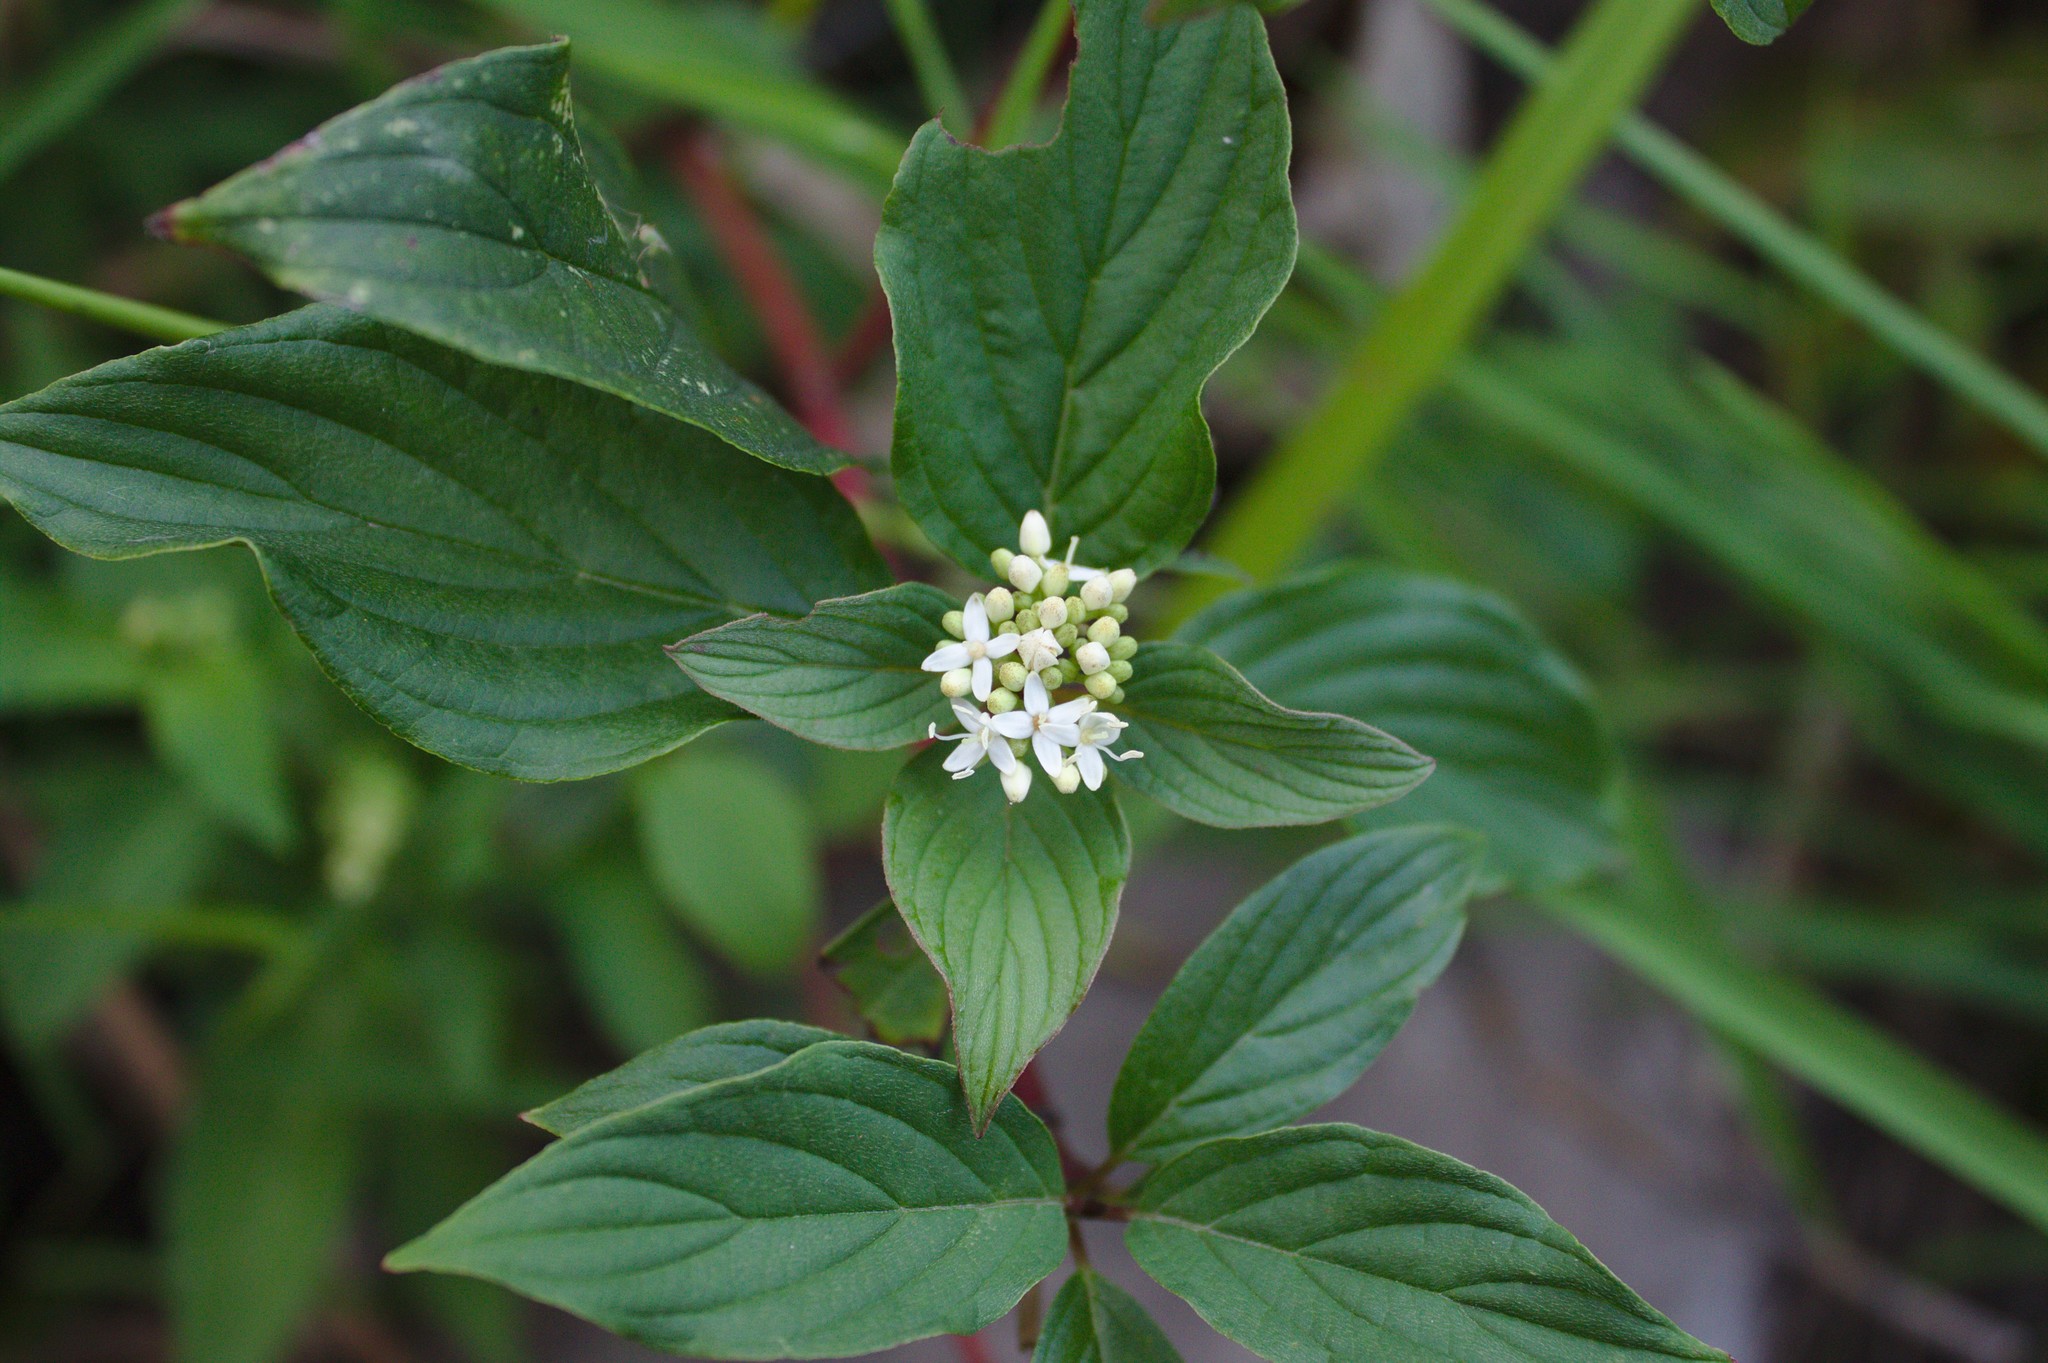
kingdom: Plantae
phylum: Tracheophyta
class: Magnoliopsida
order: Cornales
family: Cornaceae
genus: Cornus
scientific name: Cornus sericea
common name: Red-osier dogwood
